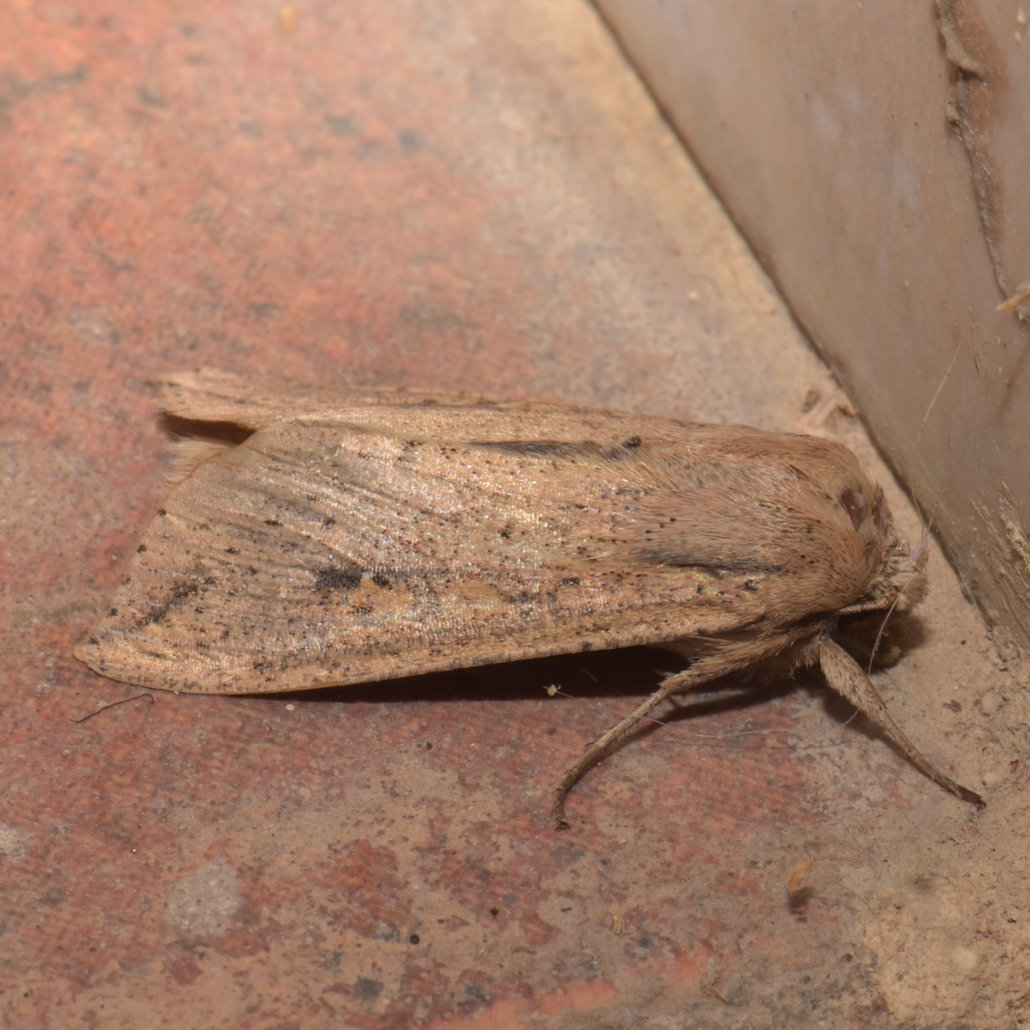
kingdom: Animalia
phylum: Arthropoda
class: Insecta
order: Lepidoptera
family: Noctuidae
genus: Mythimna
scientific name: Mythimna sequax
